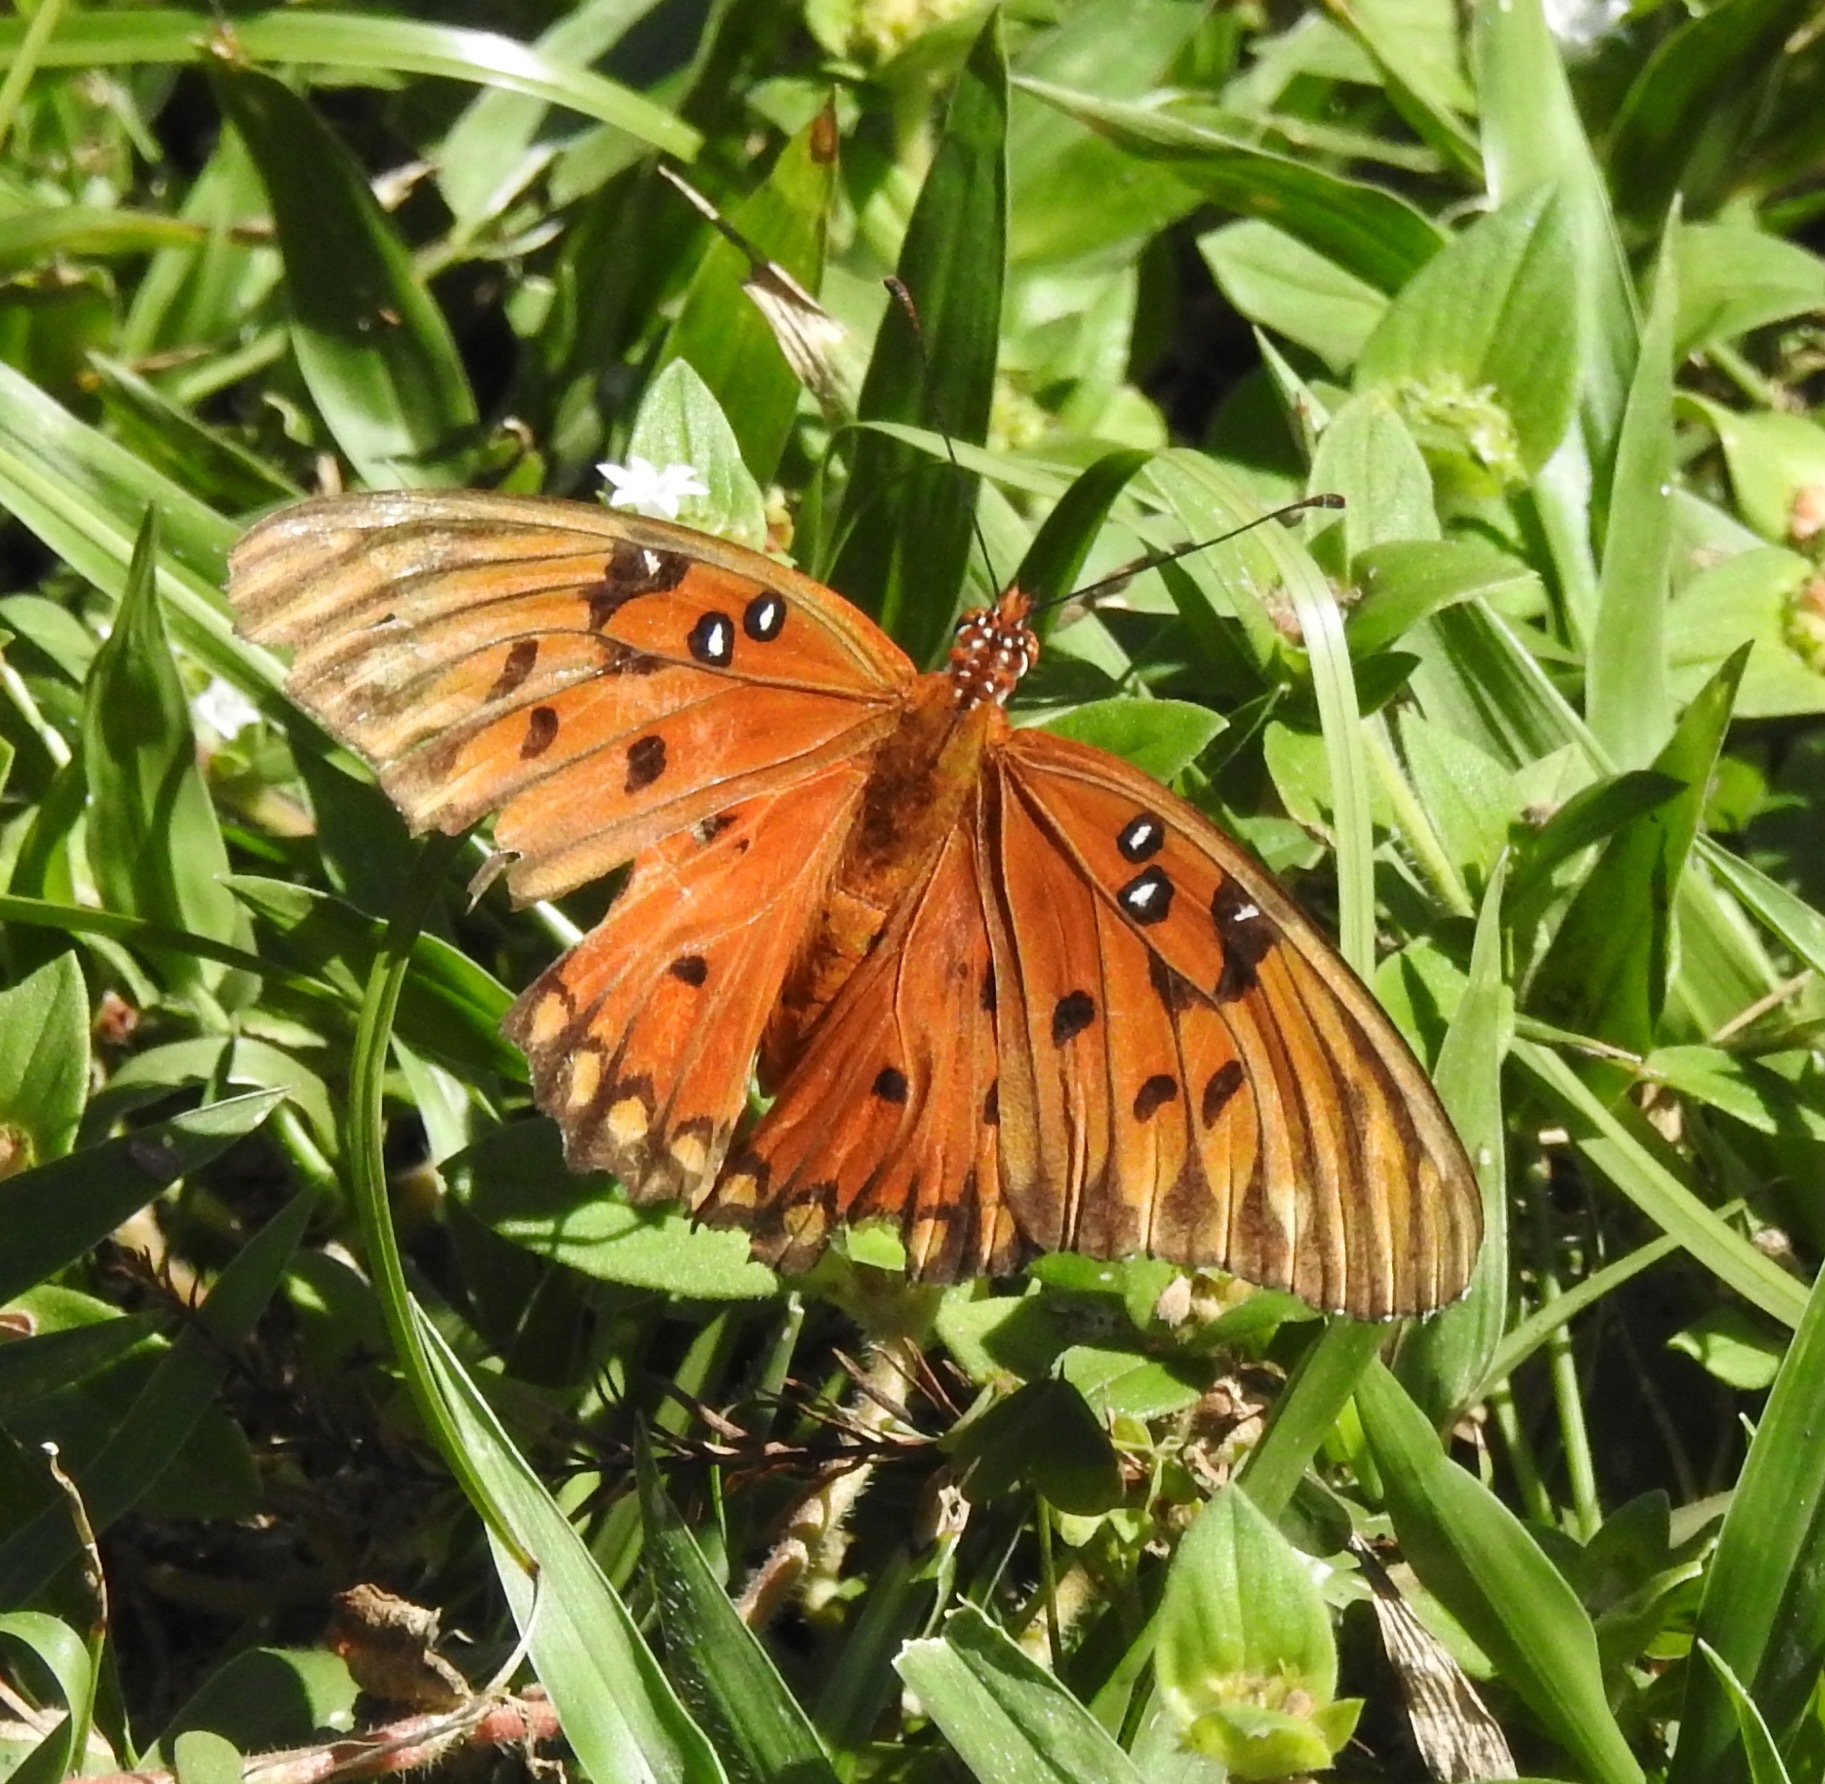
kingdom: Animalia
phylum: Arthropoda
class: Insecta
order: Lepidoptera
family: Nymphalidae
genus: Dione
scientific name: Dione vanillae
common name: Gulf fritillary
